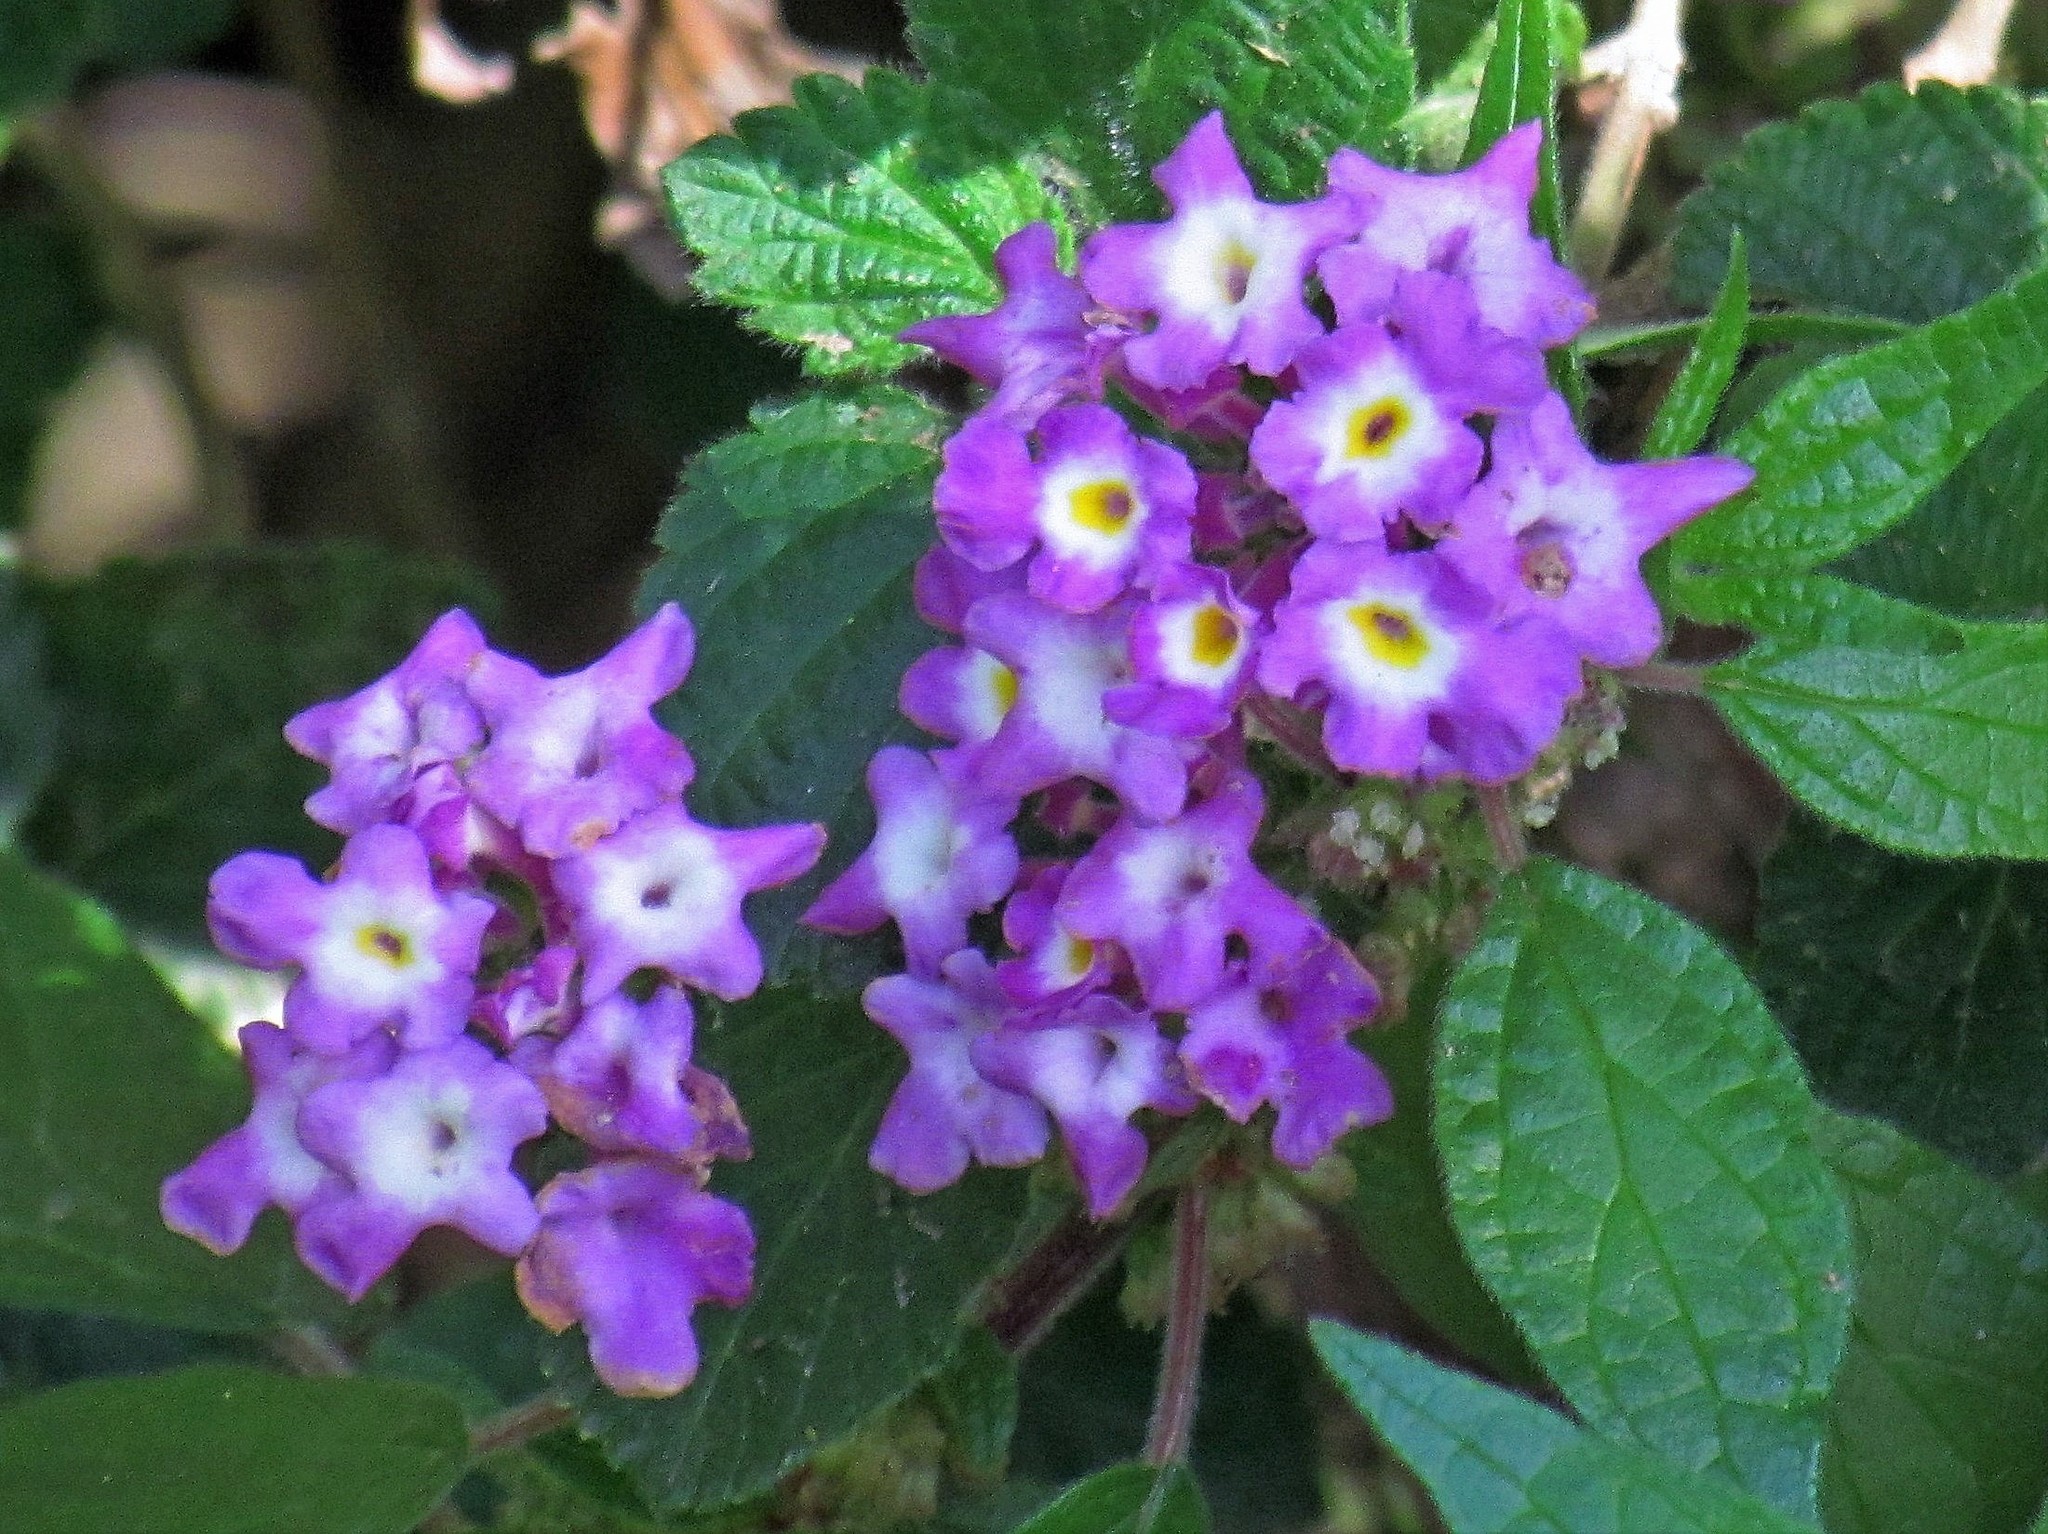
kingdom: Plantae
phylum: Tracheophyta
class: Magnoliopsida
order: Lamiales
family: Verbenaceae
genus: Lantana
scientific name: Lantana megapotamica
